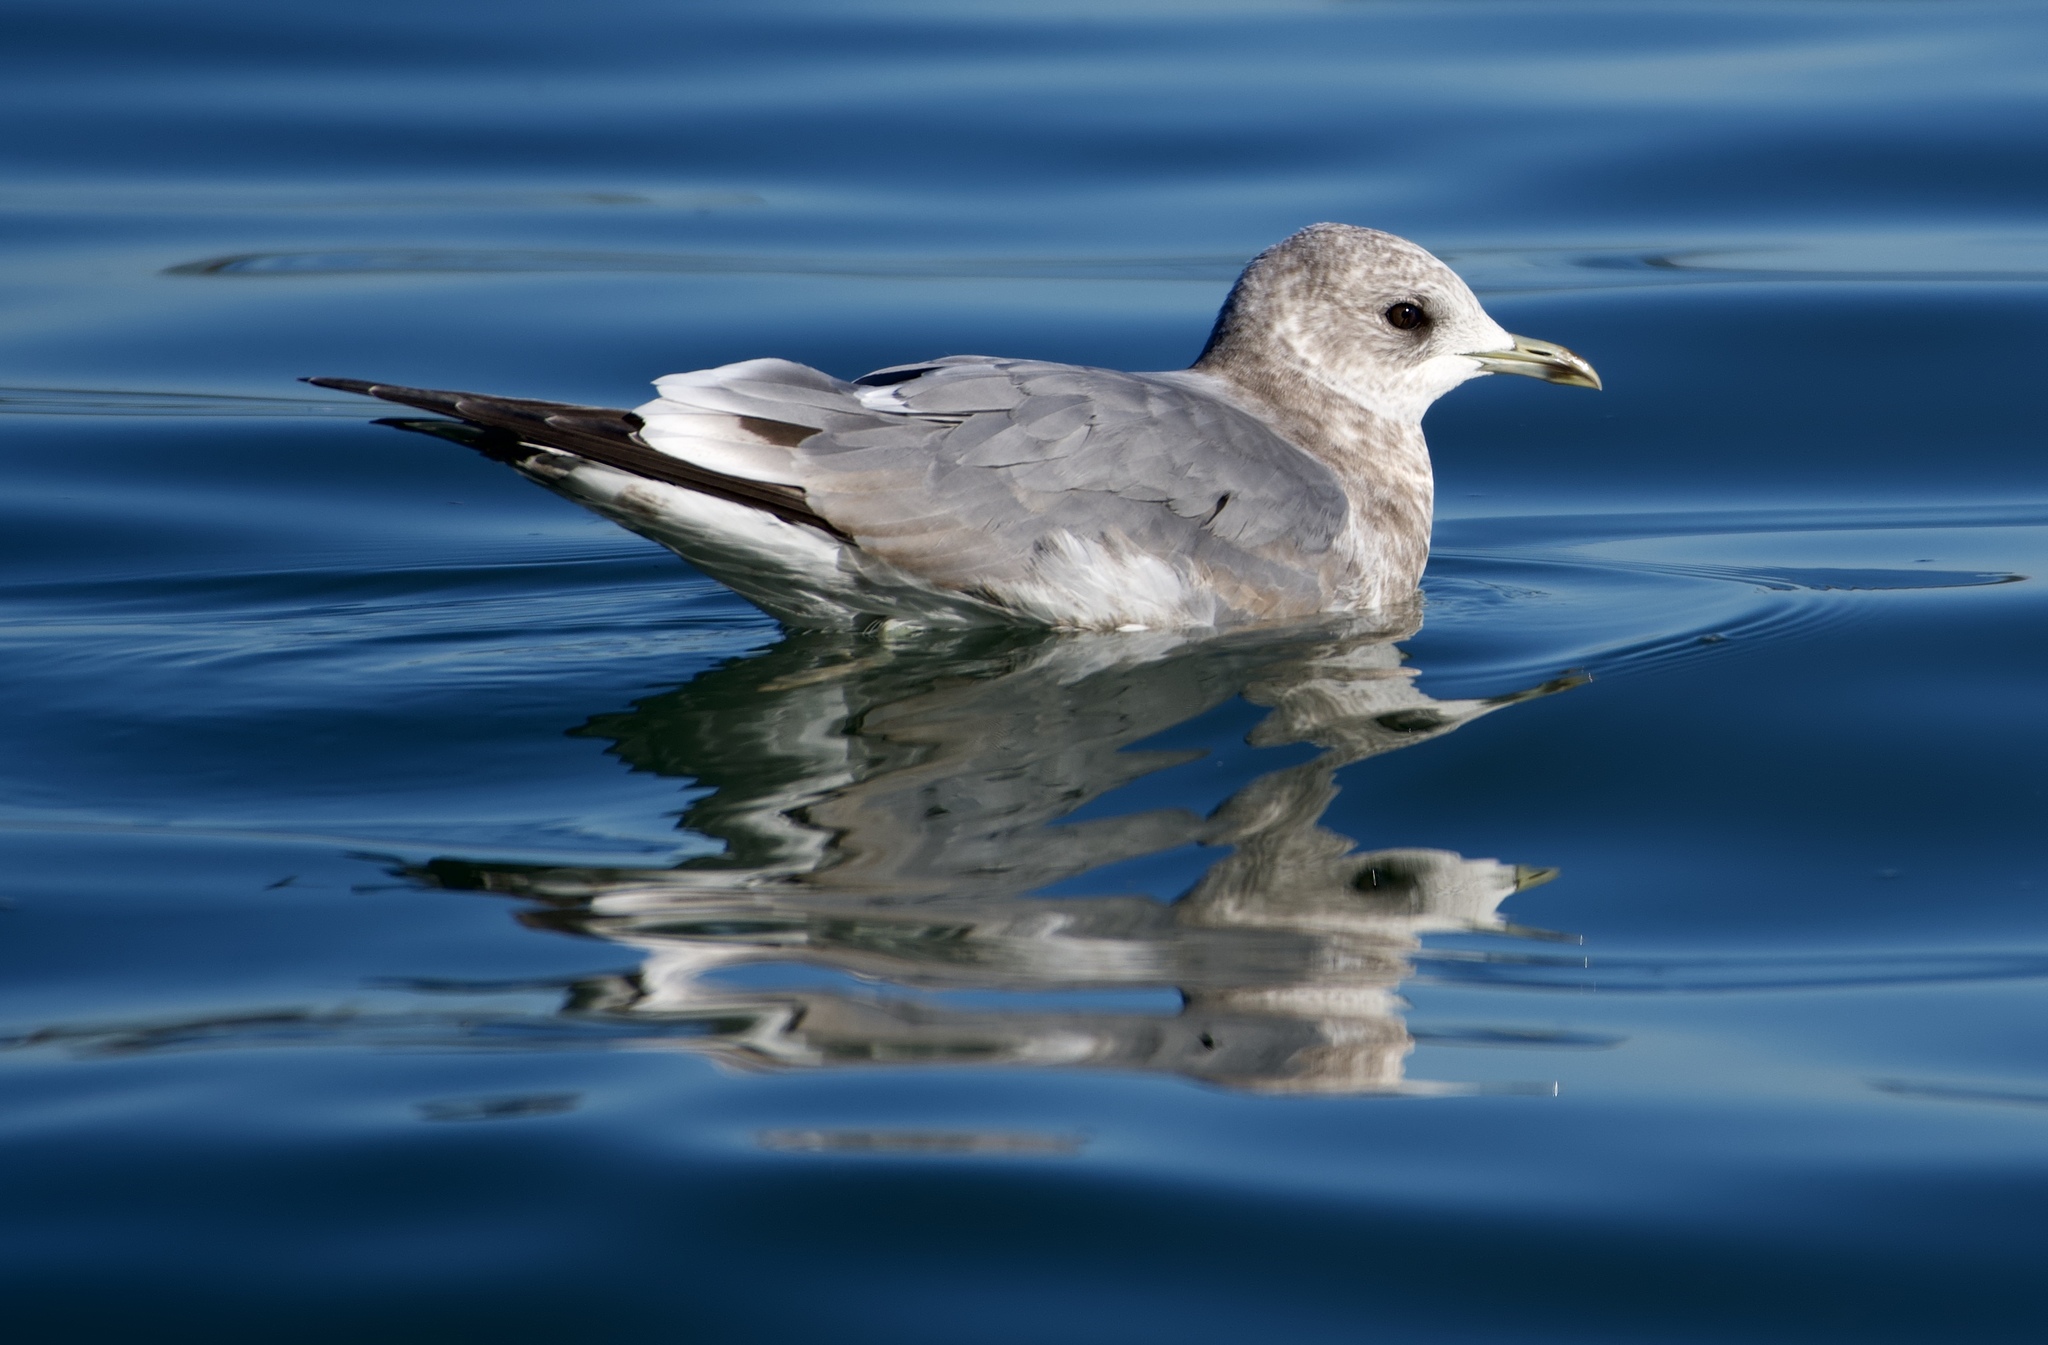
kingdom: Animalia
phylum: Chordata
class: Aves
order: Charadriiformes
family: Laridae
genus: Larus
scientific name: Larus brachyrhynchus
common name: Short-billed gull
